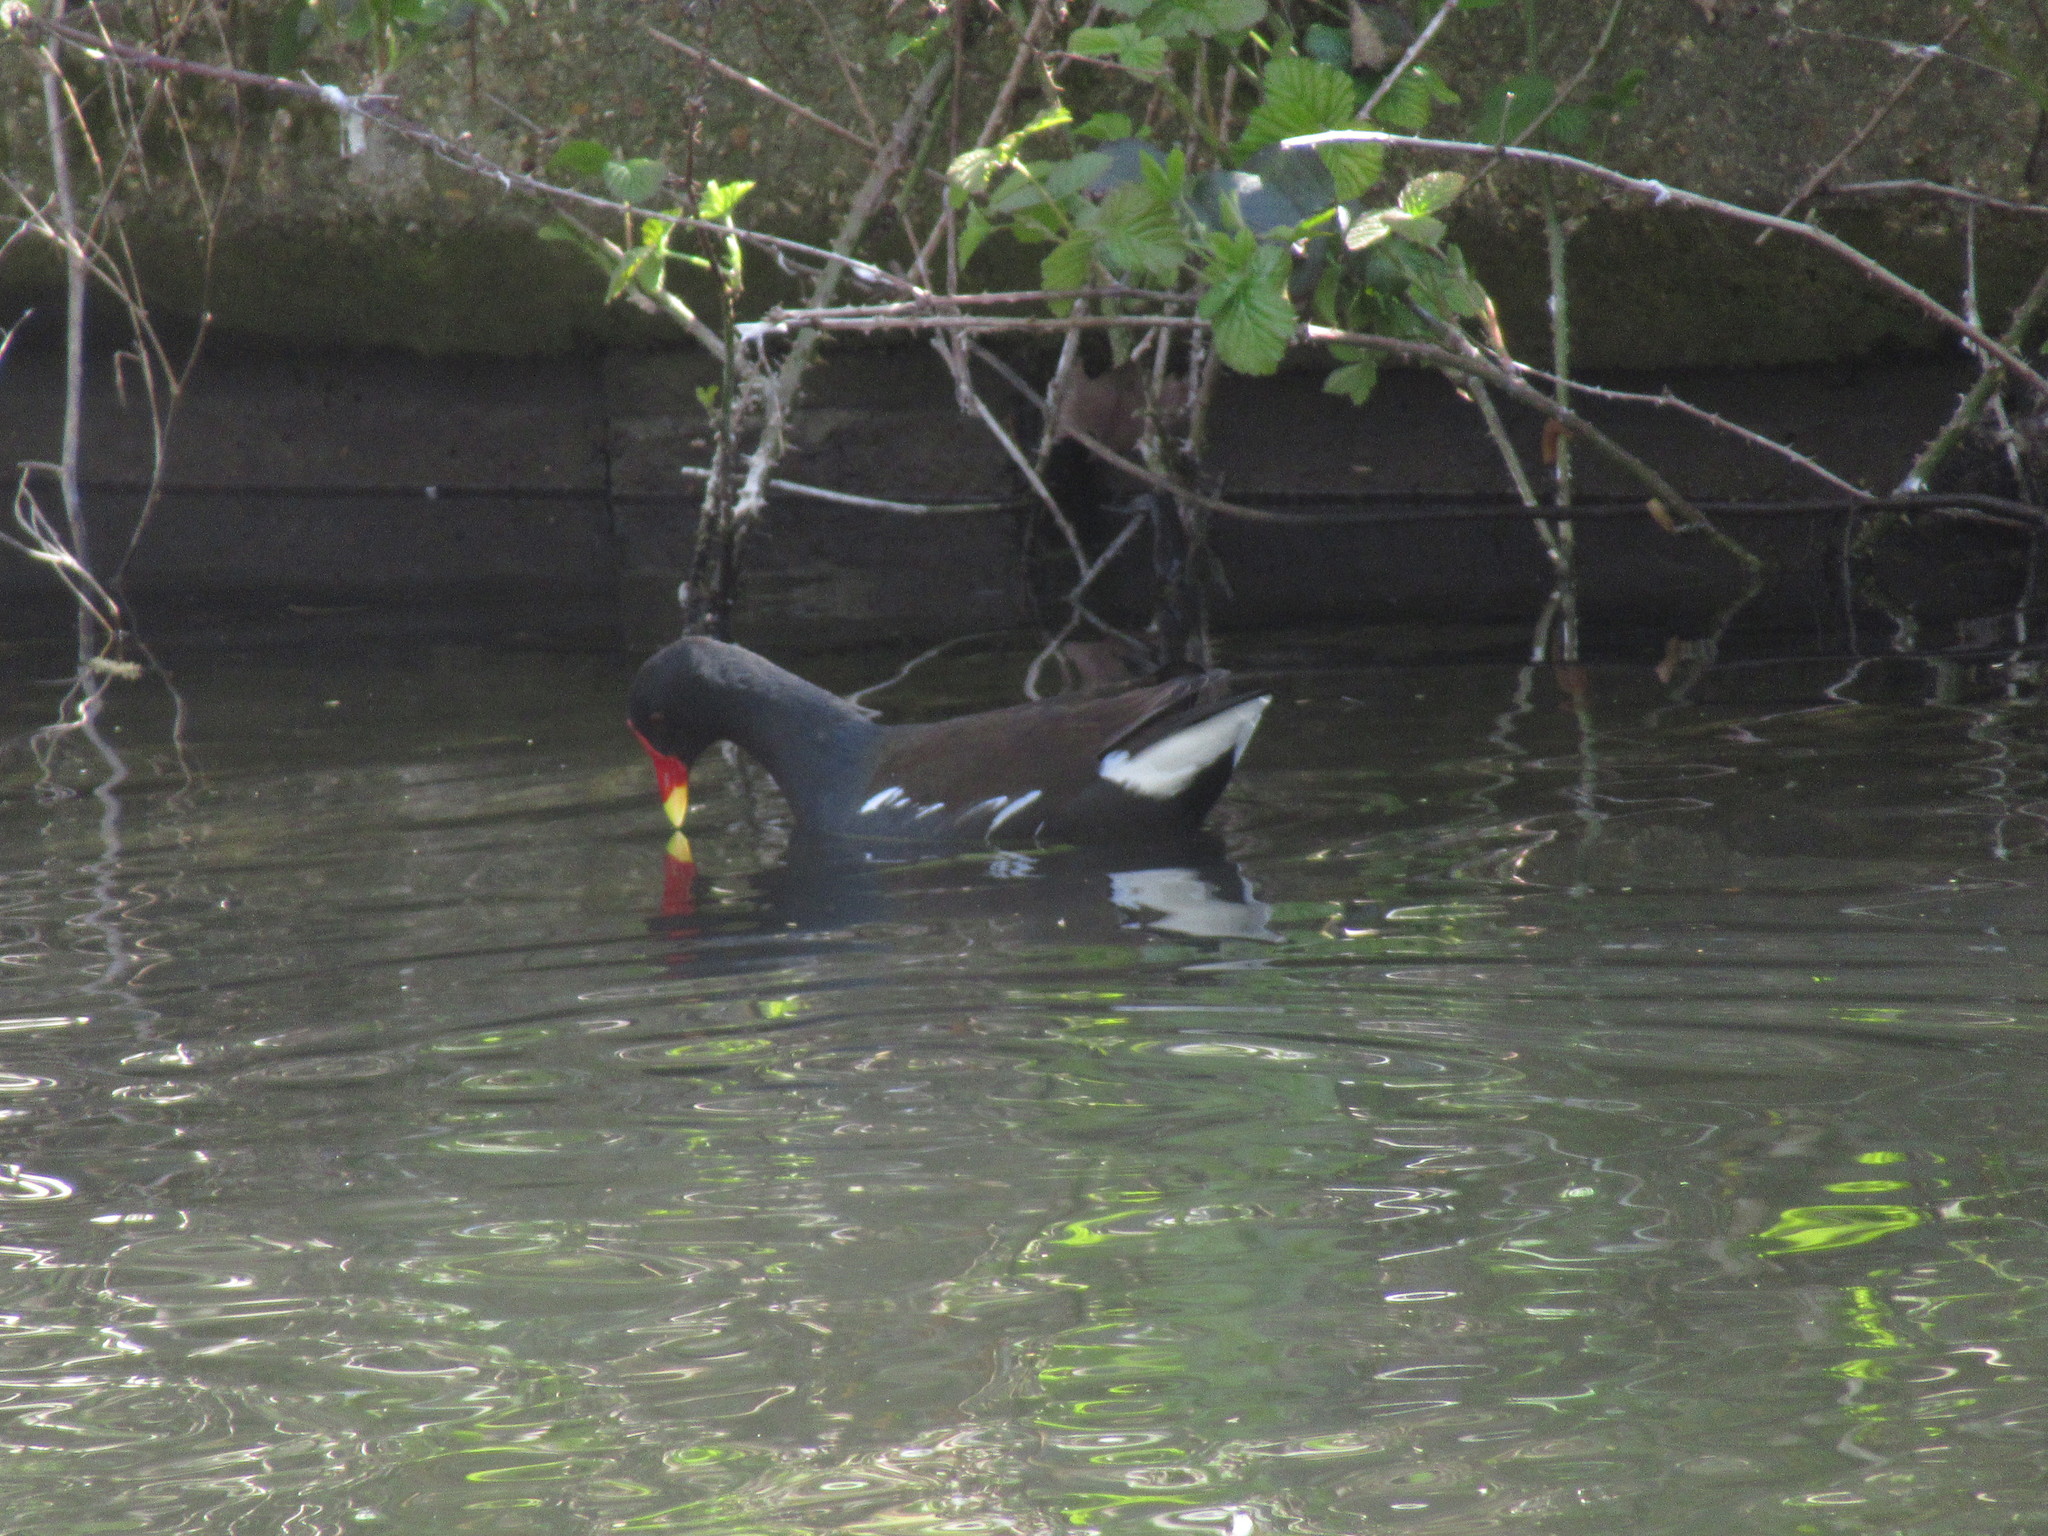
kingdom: Animalia
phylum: Chordata
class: Aves
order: Gruiformes
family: Rallidae
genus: Gallinula
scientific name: Gallinula chloropus
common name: Common moorhen
